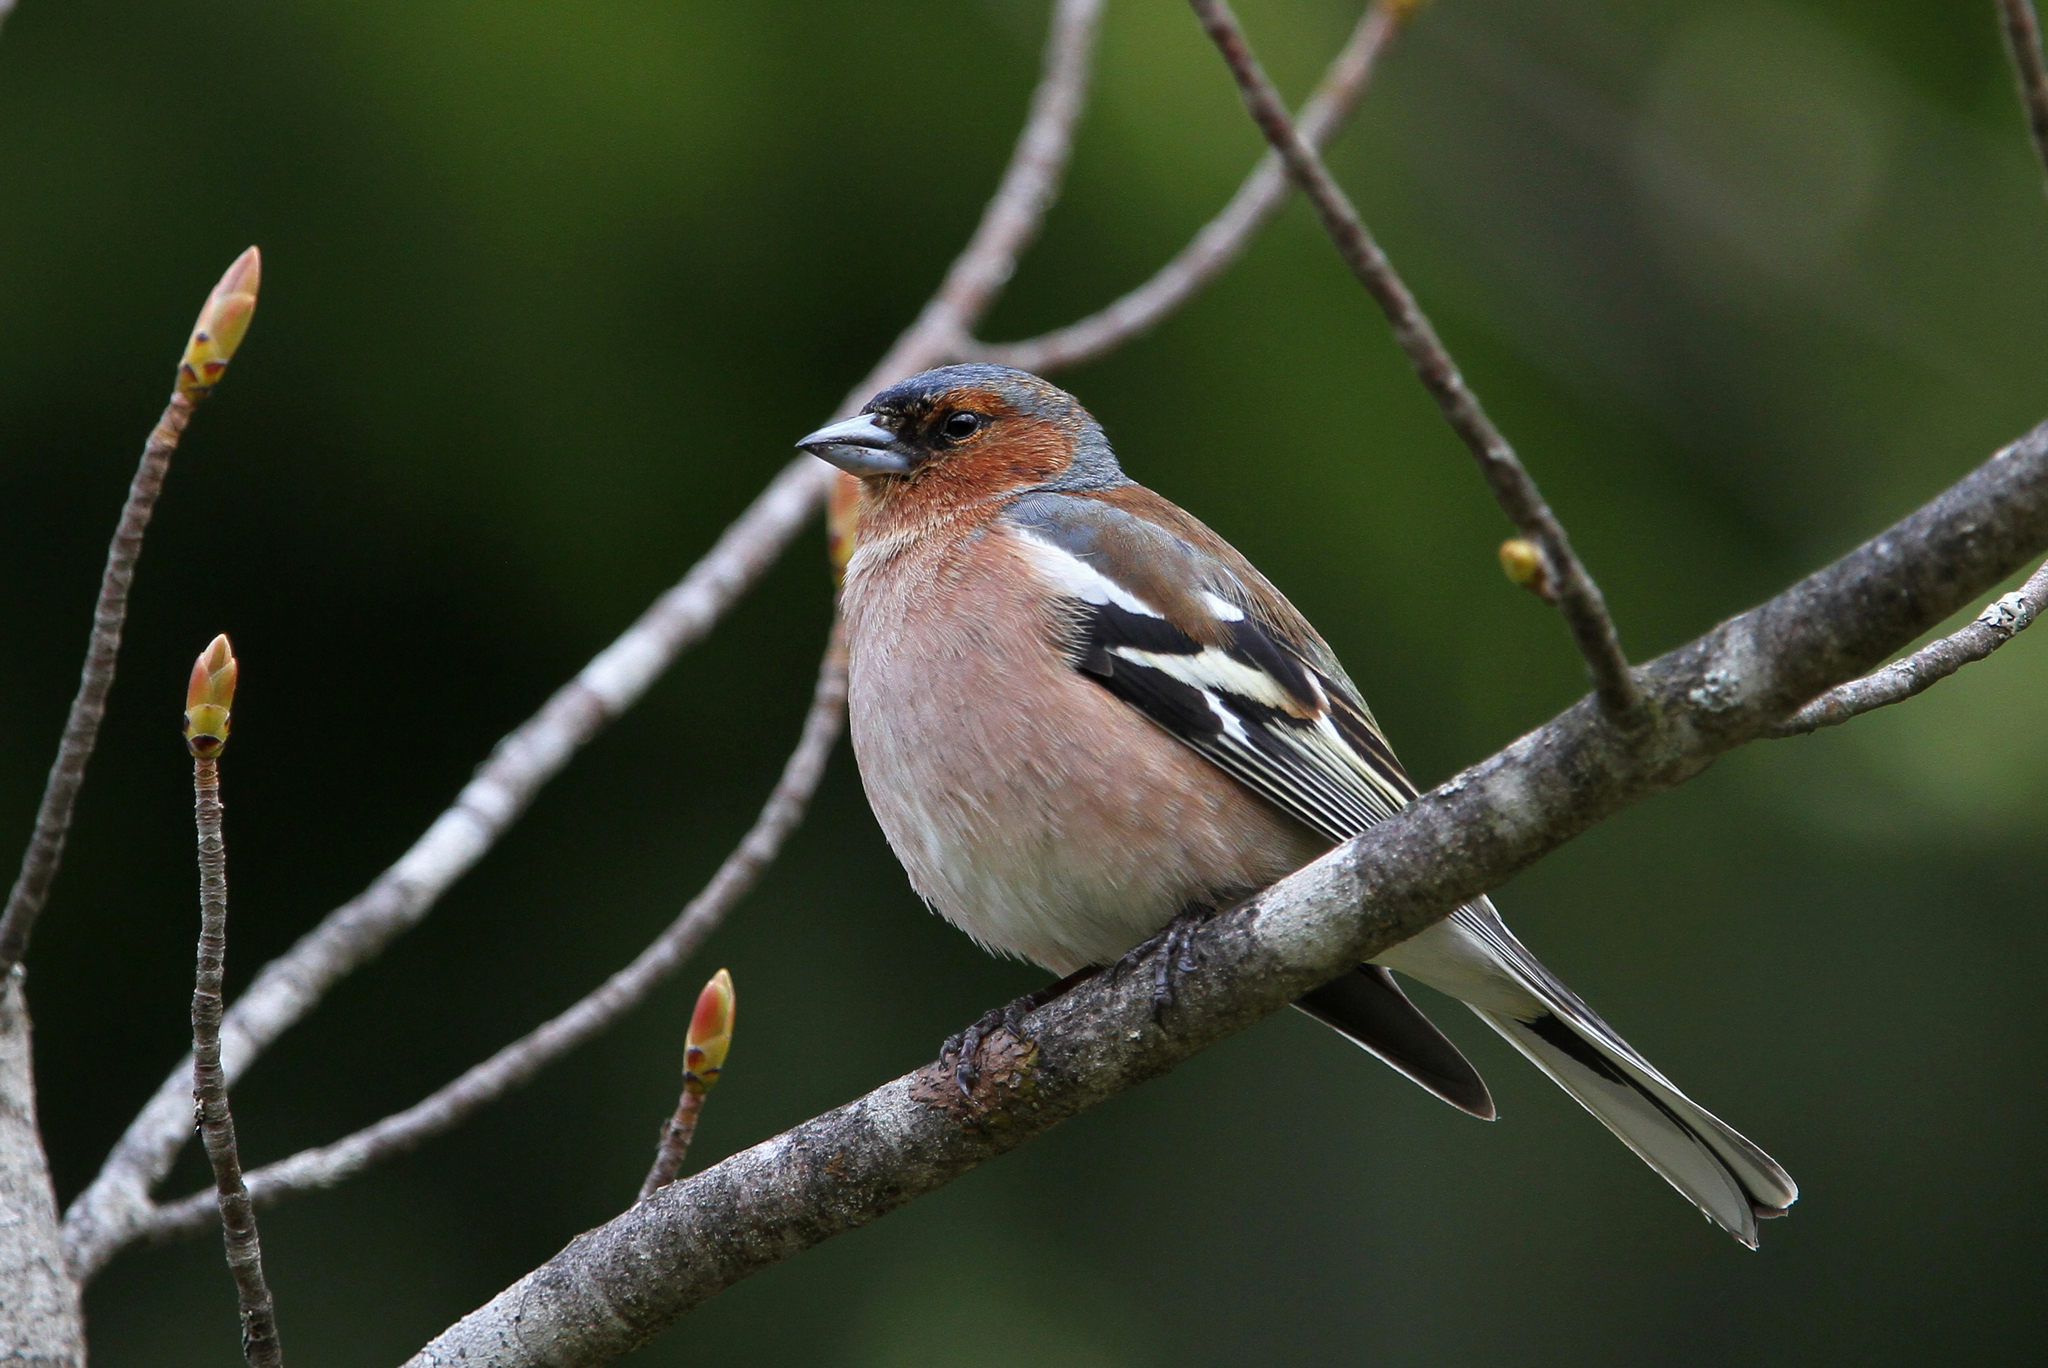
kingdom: Animalia
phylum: Chordata
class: Aves
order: Passeriformes
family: Fringillidae
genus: Fringilla
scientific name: Fringilla coelebs
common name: Common chaffinch
